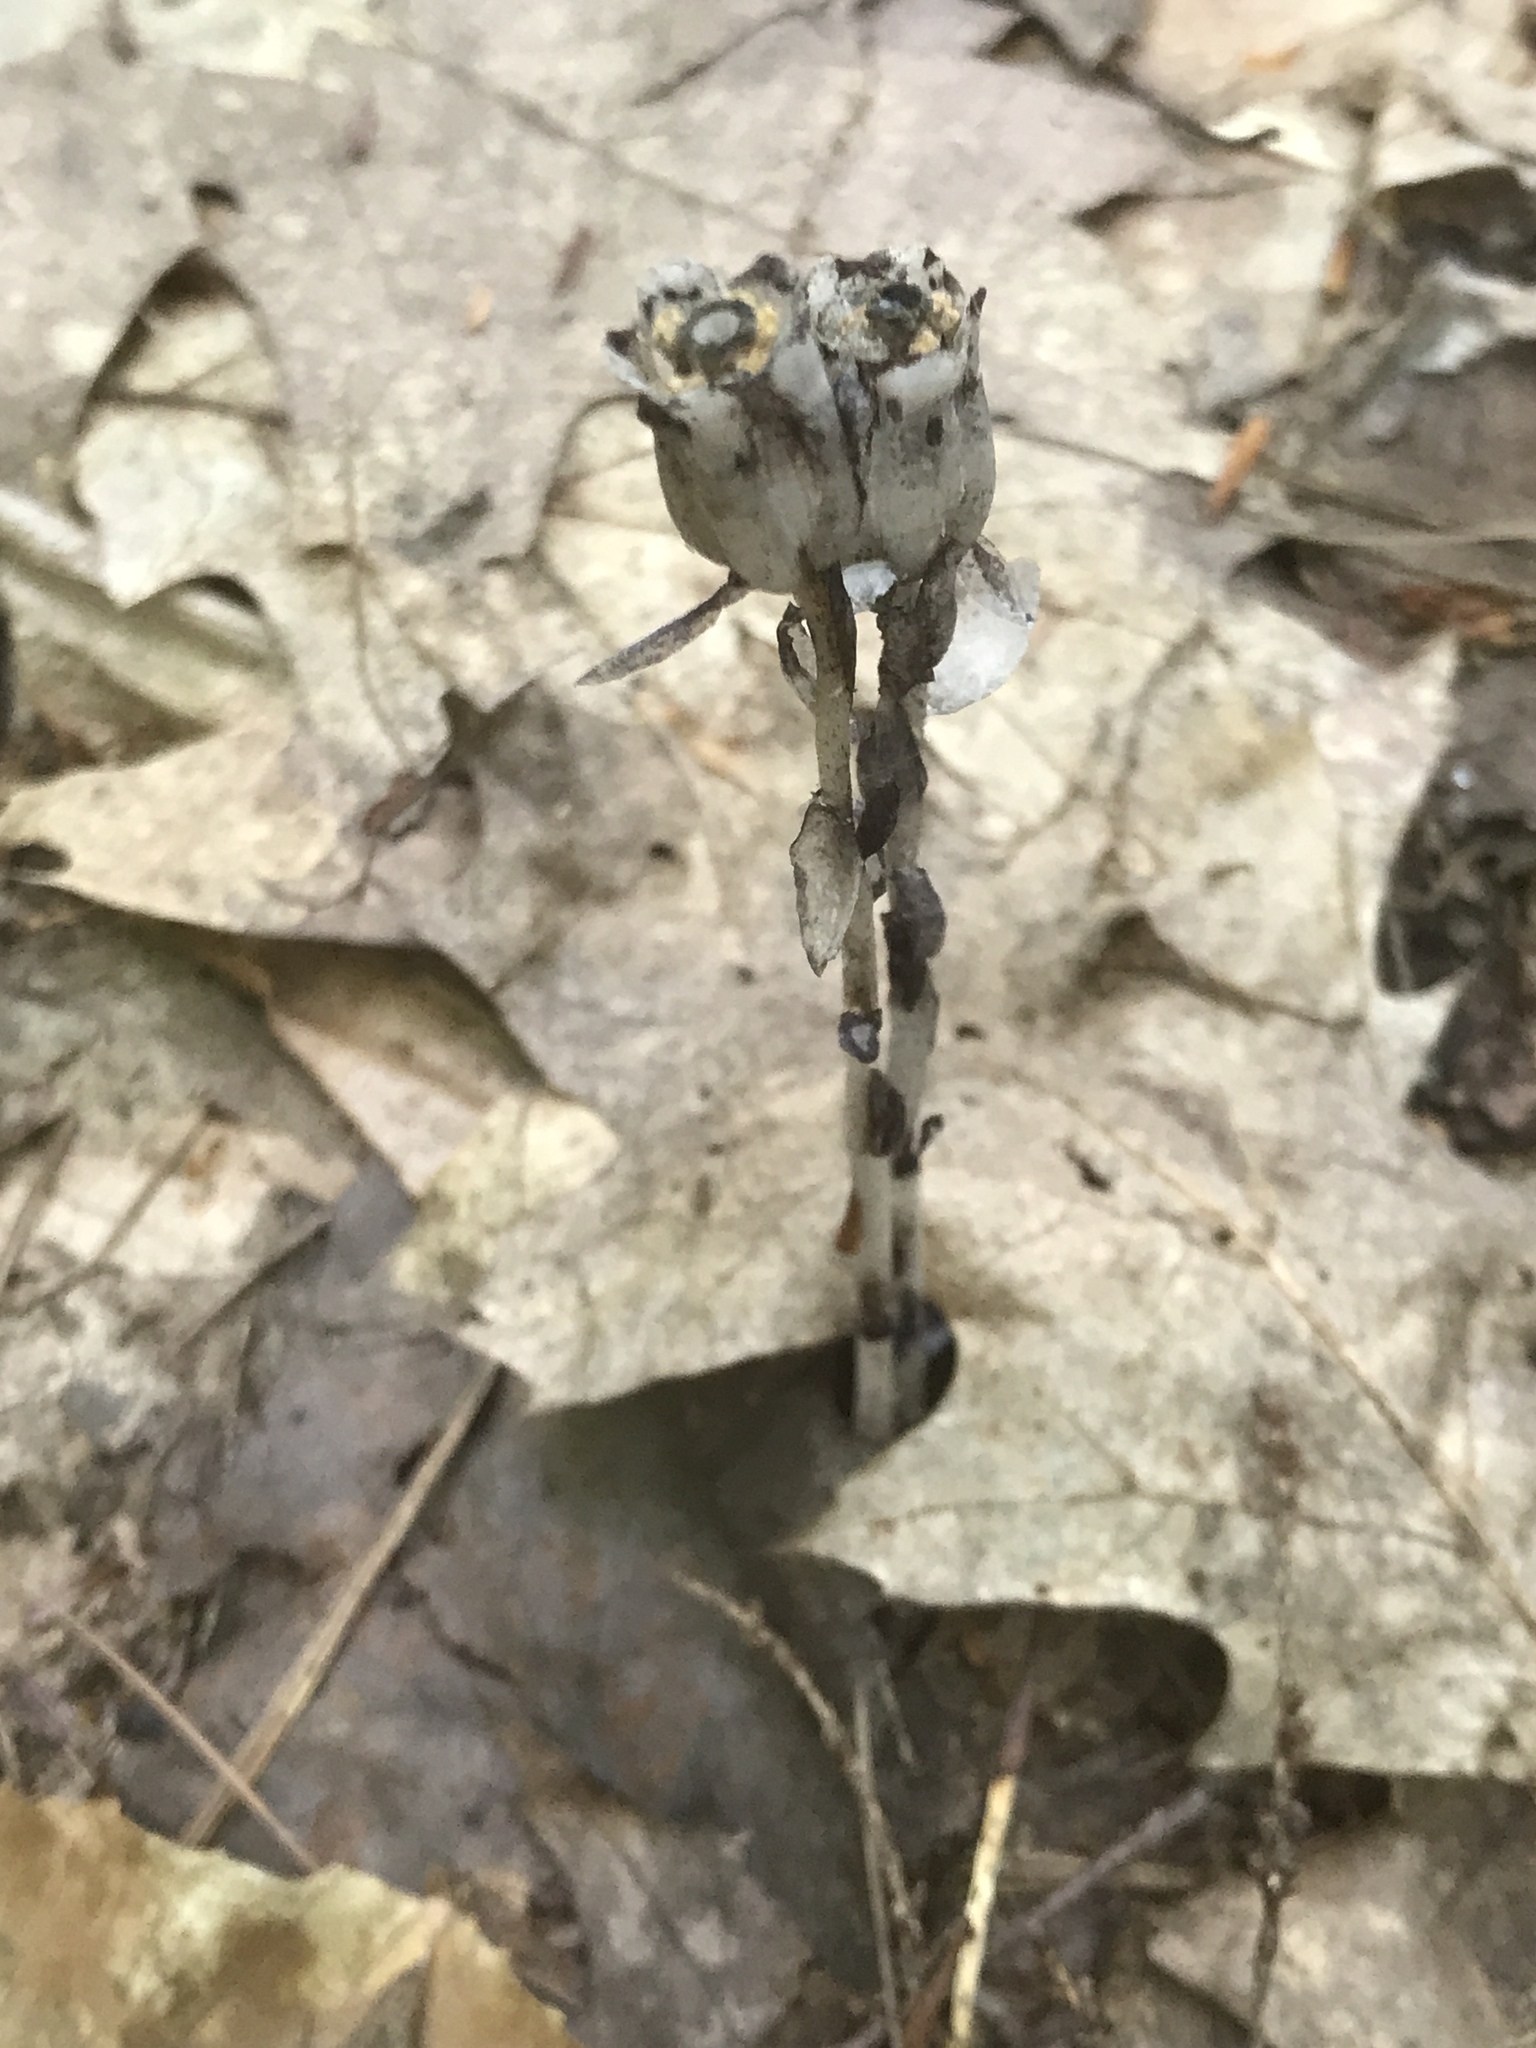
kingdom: Plantae
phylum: Tracheophyta
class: Magnoliopsida
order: Ericales
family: Ericaceae
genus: Monotropa
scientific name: Monotropa uniflora
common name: Convulsion root
